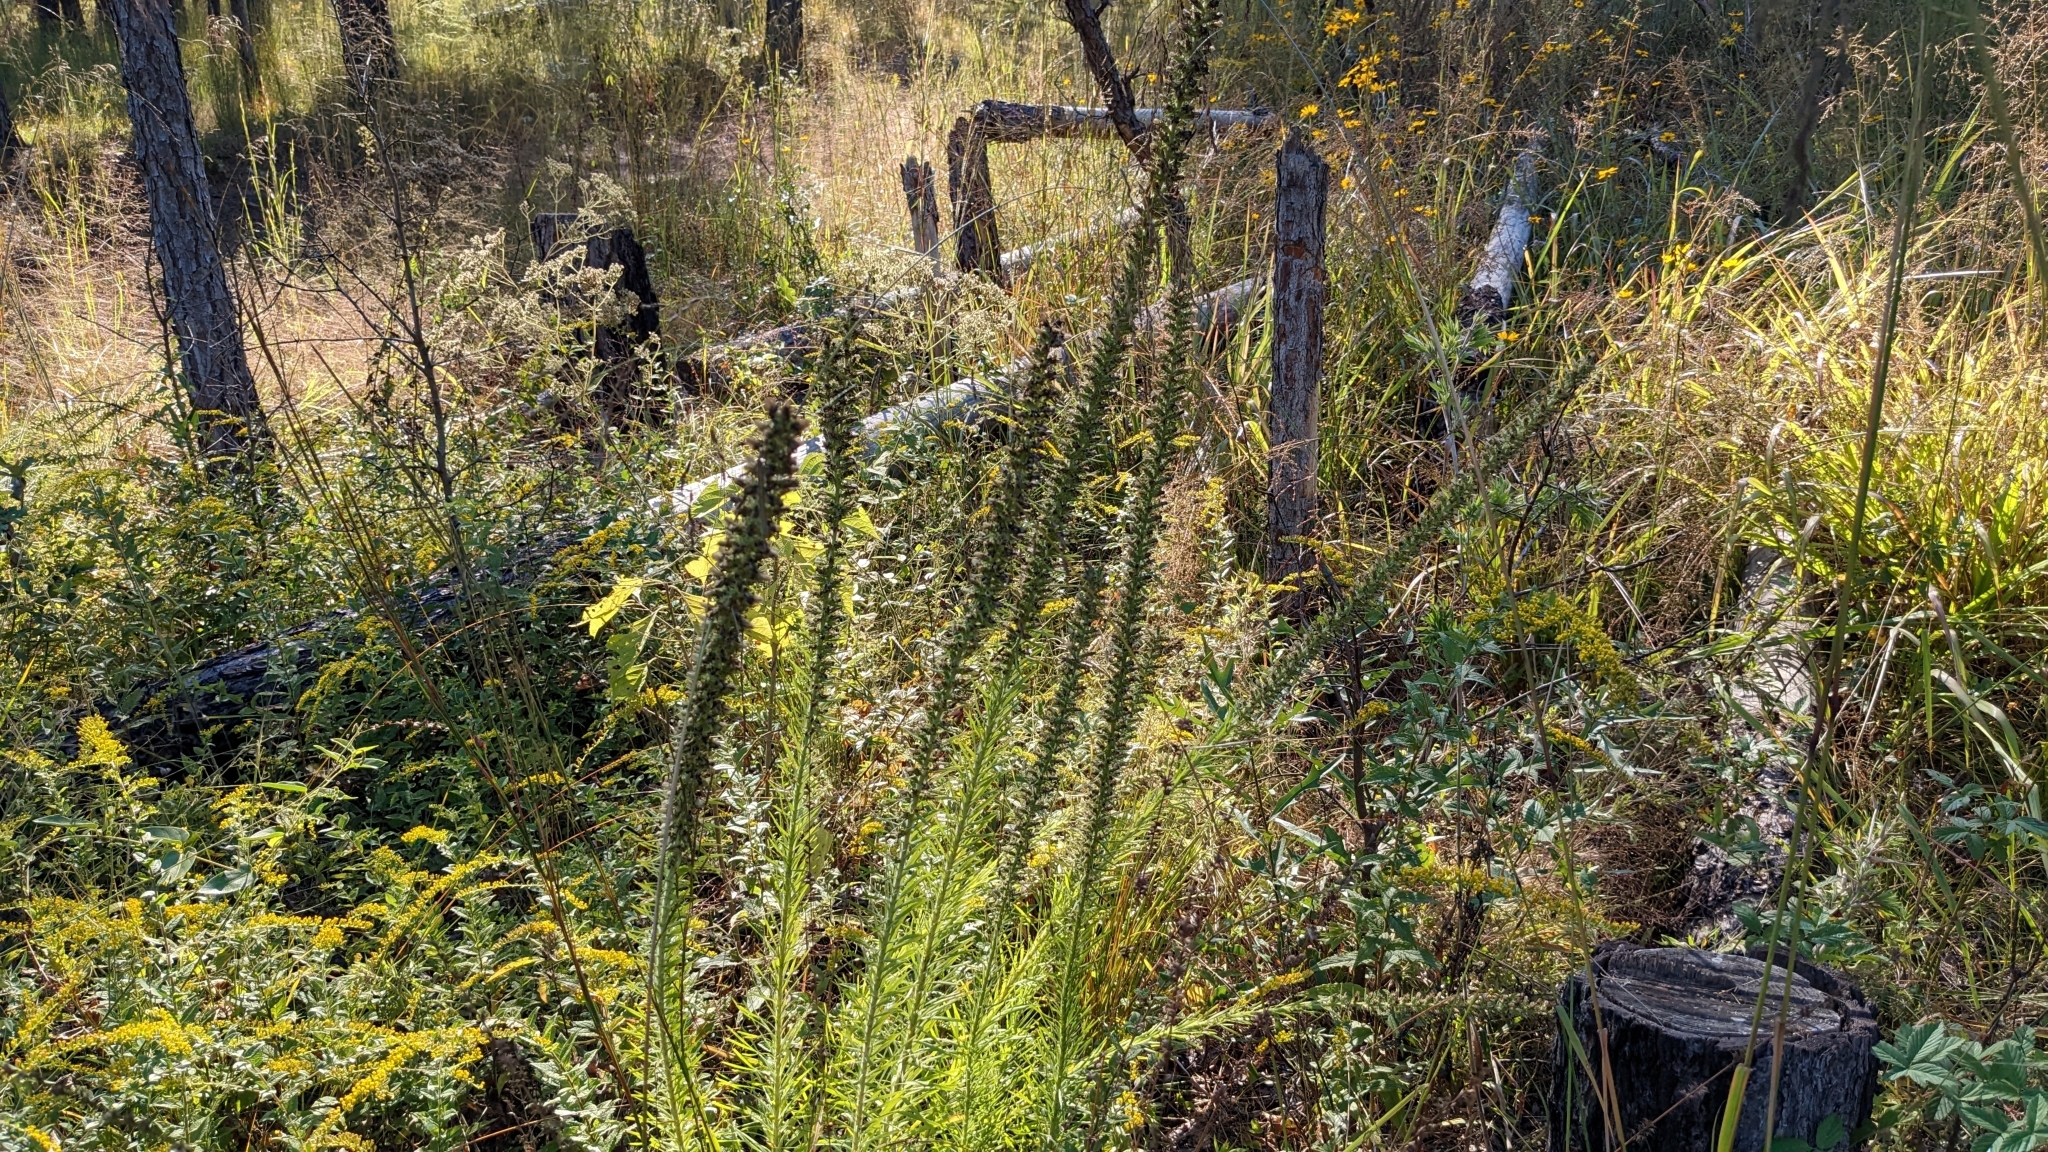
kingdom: Plantae
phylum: Tracheophyta
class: Magnoliopsida
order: Asterales
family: Asteraceae
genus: Liatris
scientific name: Liatris hesperelegans
